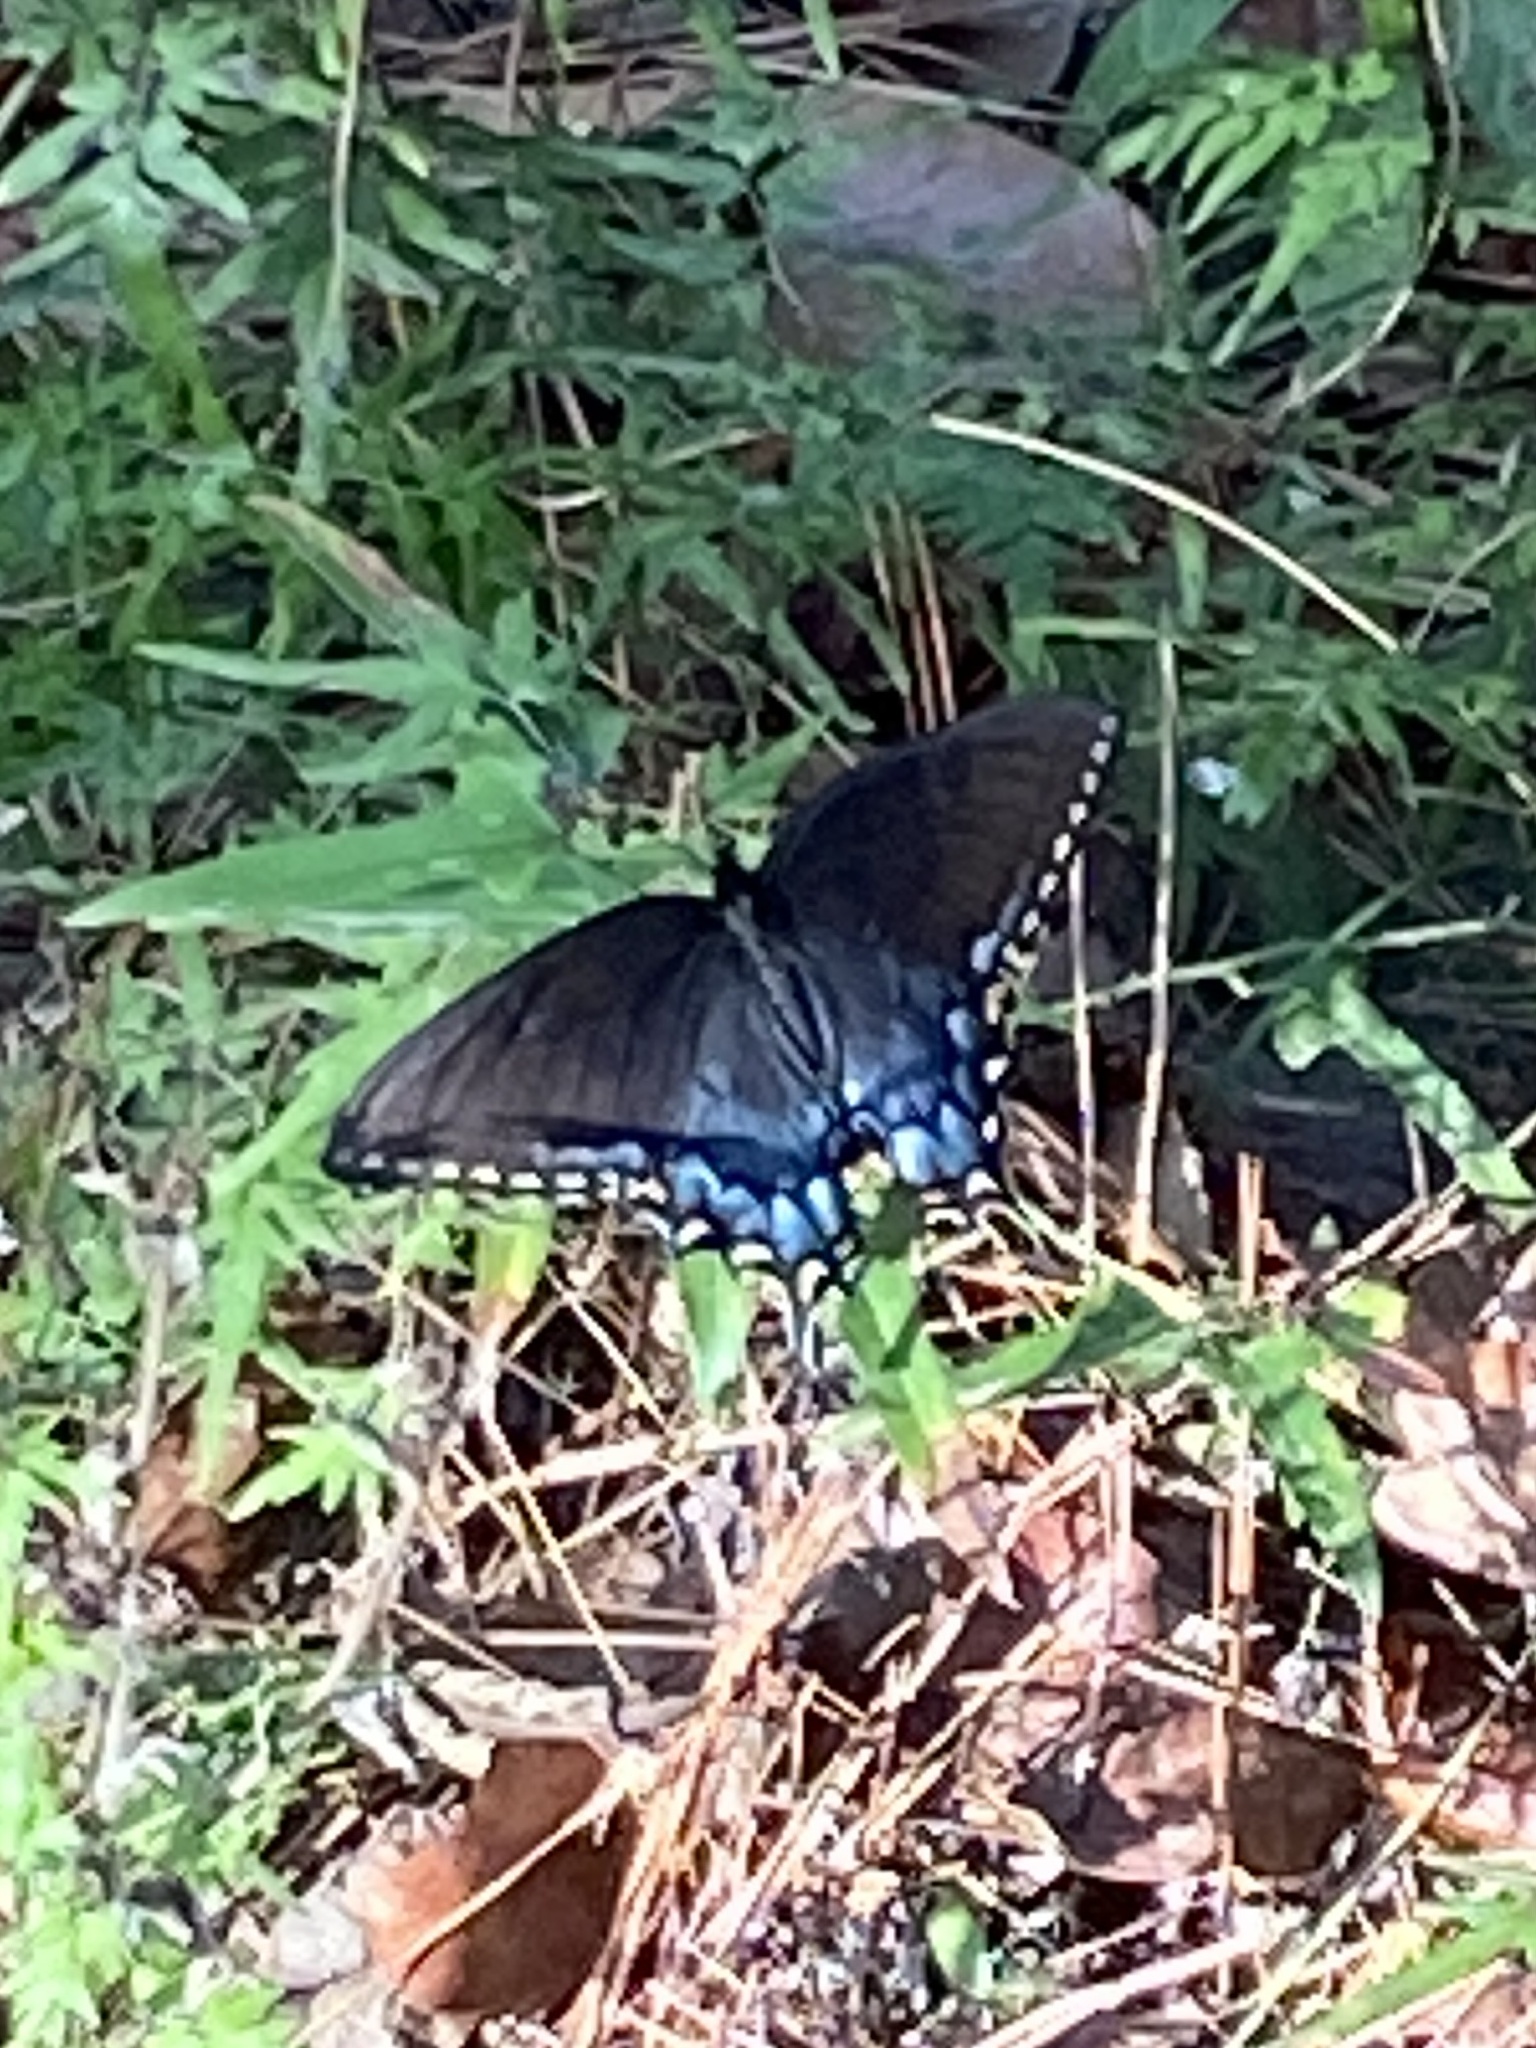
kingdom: Animalia
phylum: Arthropoda
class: Insecta
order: Lepidoptera
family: Papilionidae
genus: Papilio
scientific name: Papilio glaucus
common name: Tiger swallowtail
